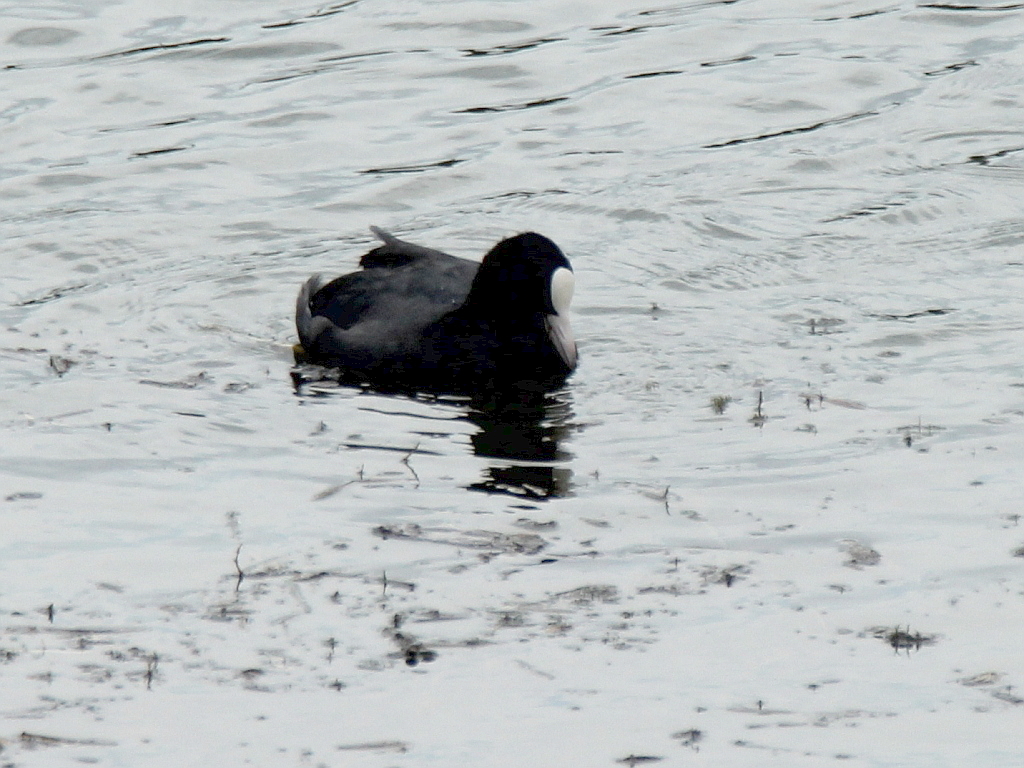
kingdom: Animalia
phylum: Chordata
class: Aves
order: Gruiformes
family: Rallidae
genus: Fulica
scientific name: Fulica atra
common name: Eurasian coot
